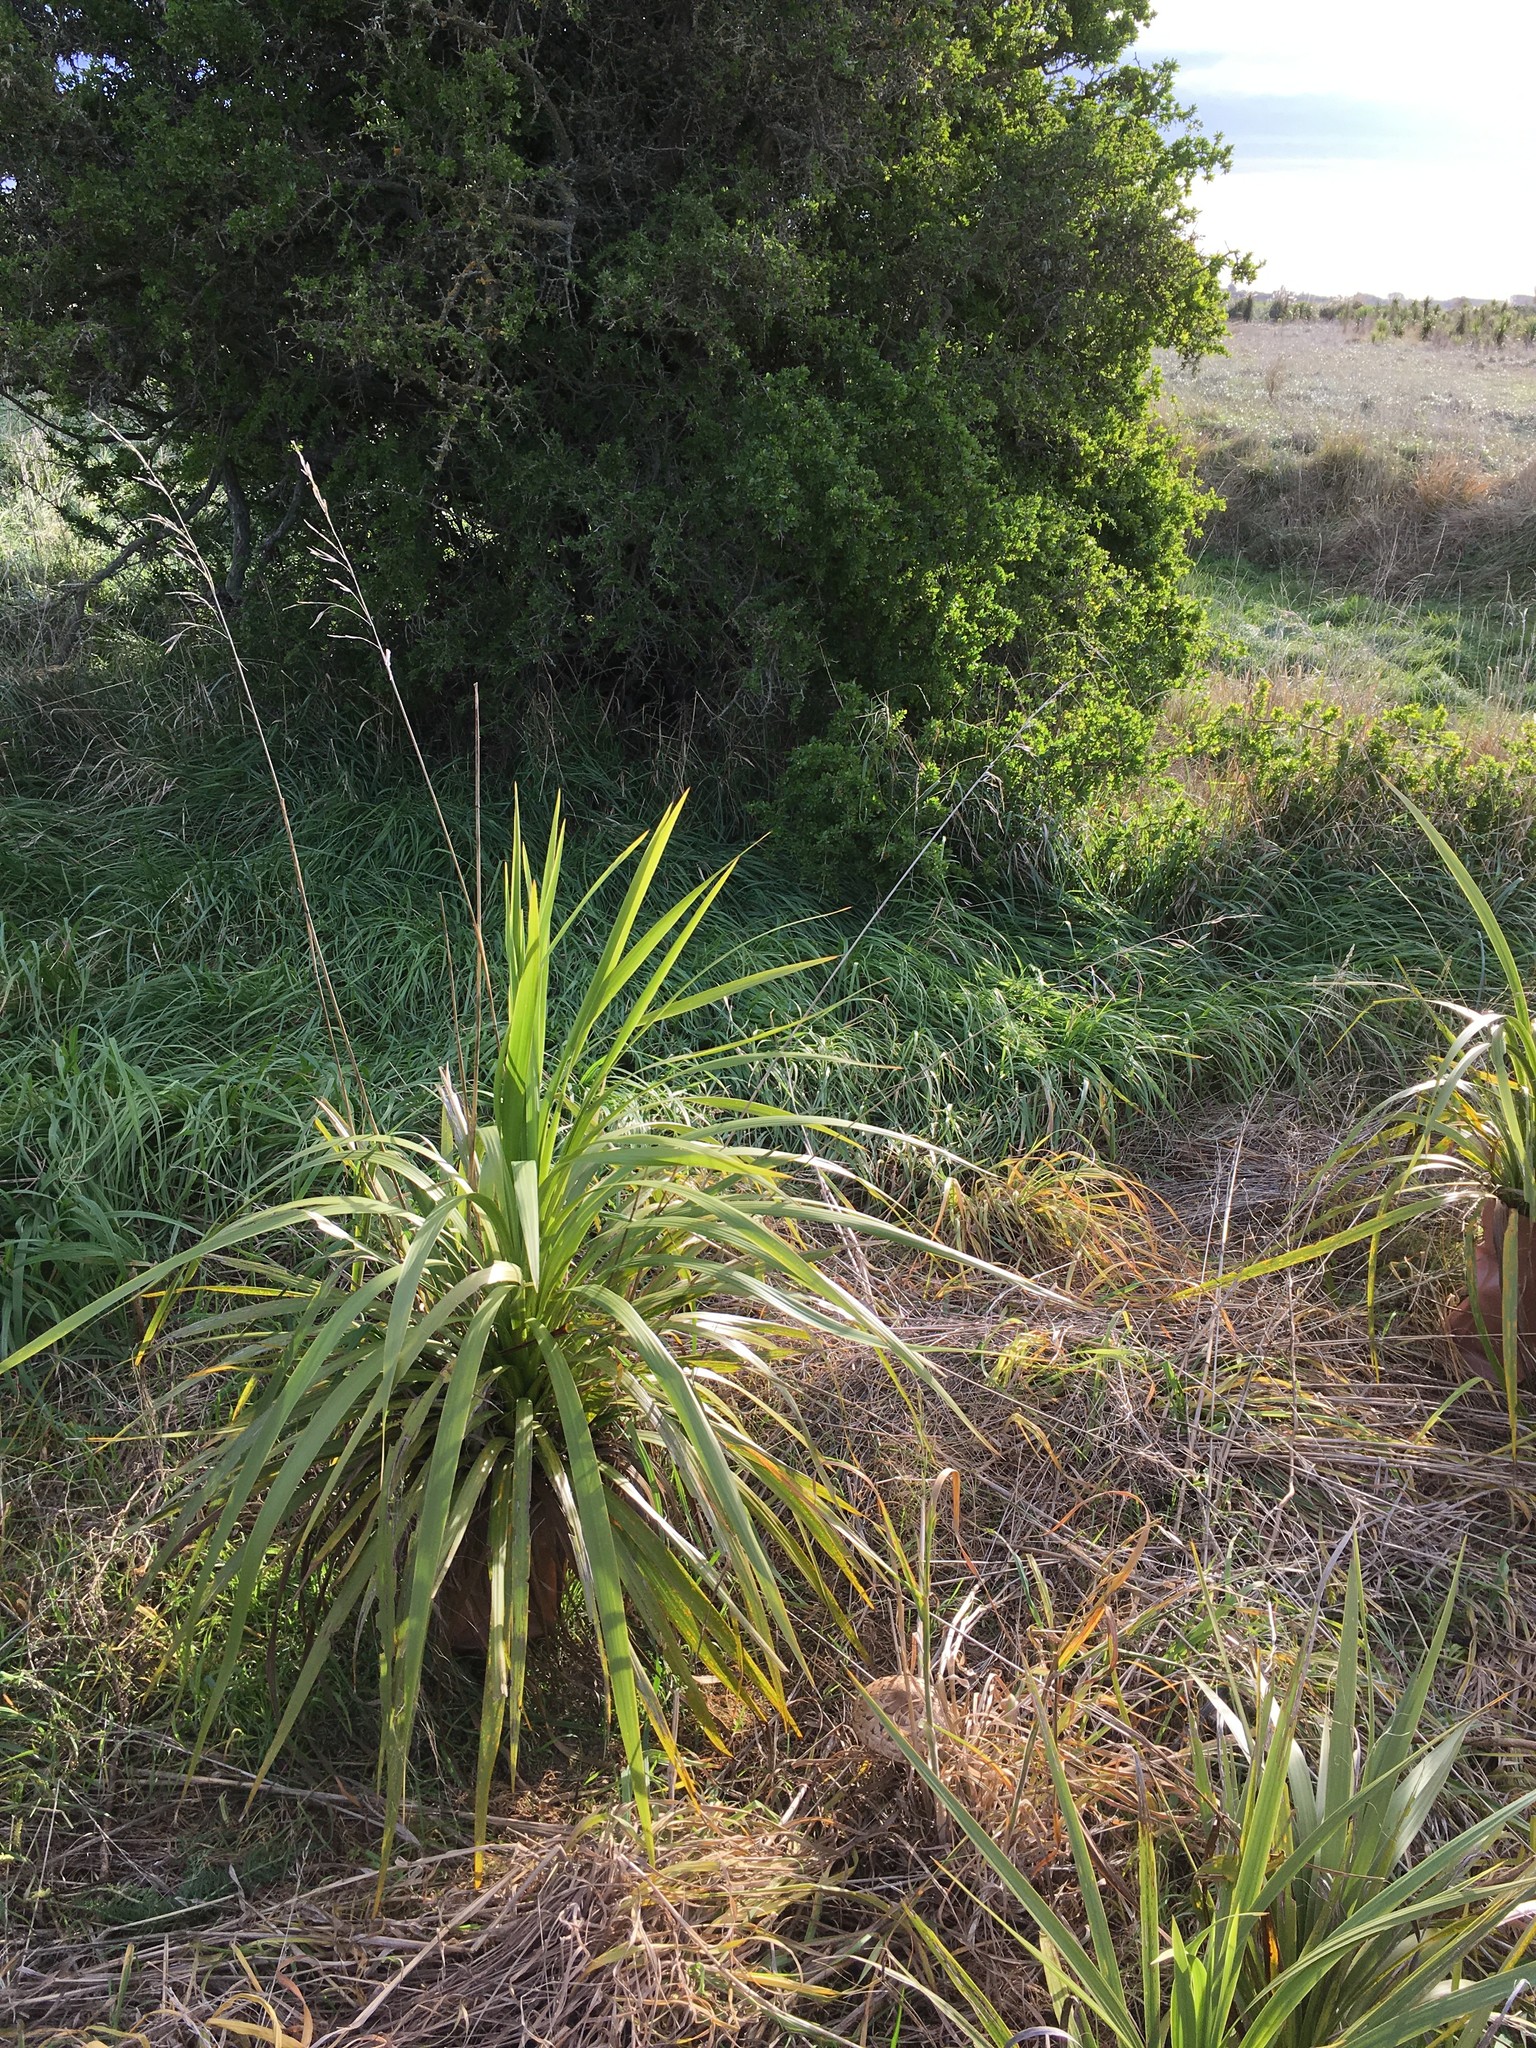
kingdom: Plantae
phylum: Tracheophyta
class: Magnoliopsida
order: Solanales
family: Solanaceae
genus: Lycium
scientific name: Lycium ferocissimum
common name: African boxthorn
